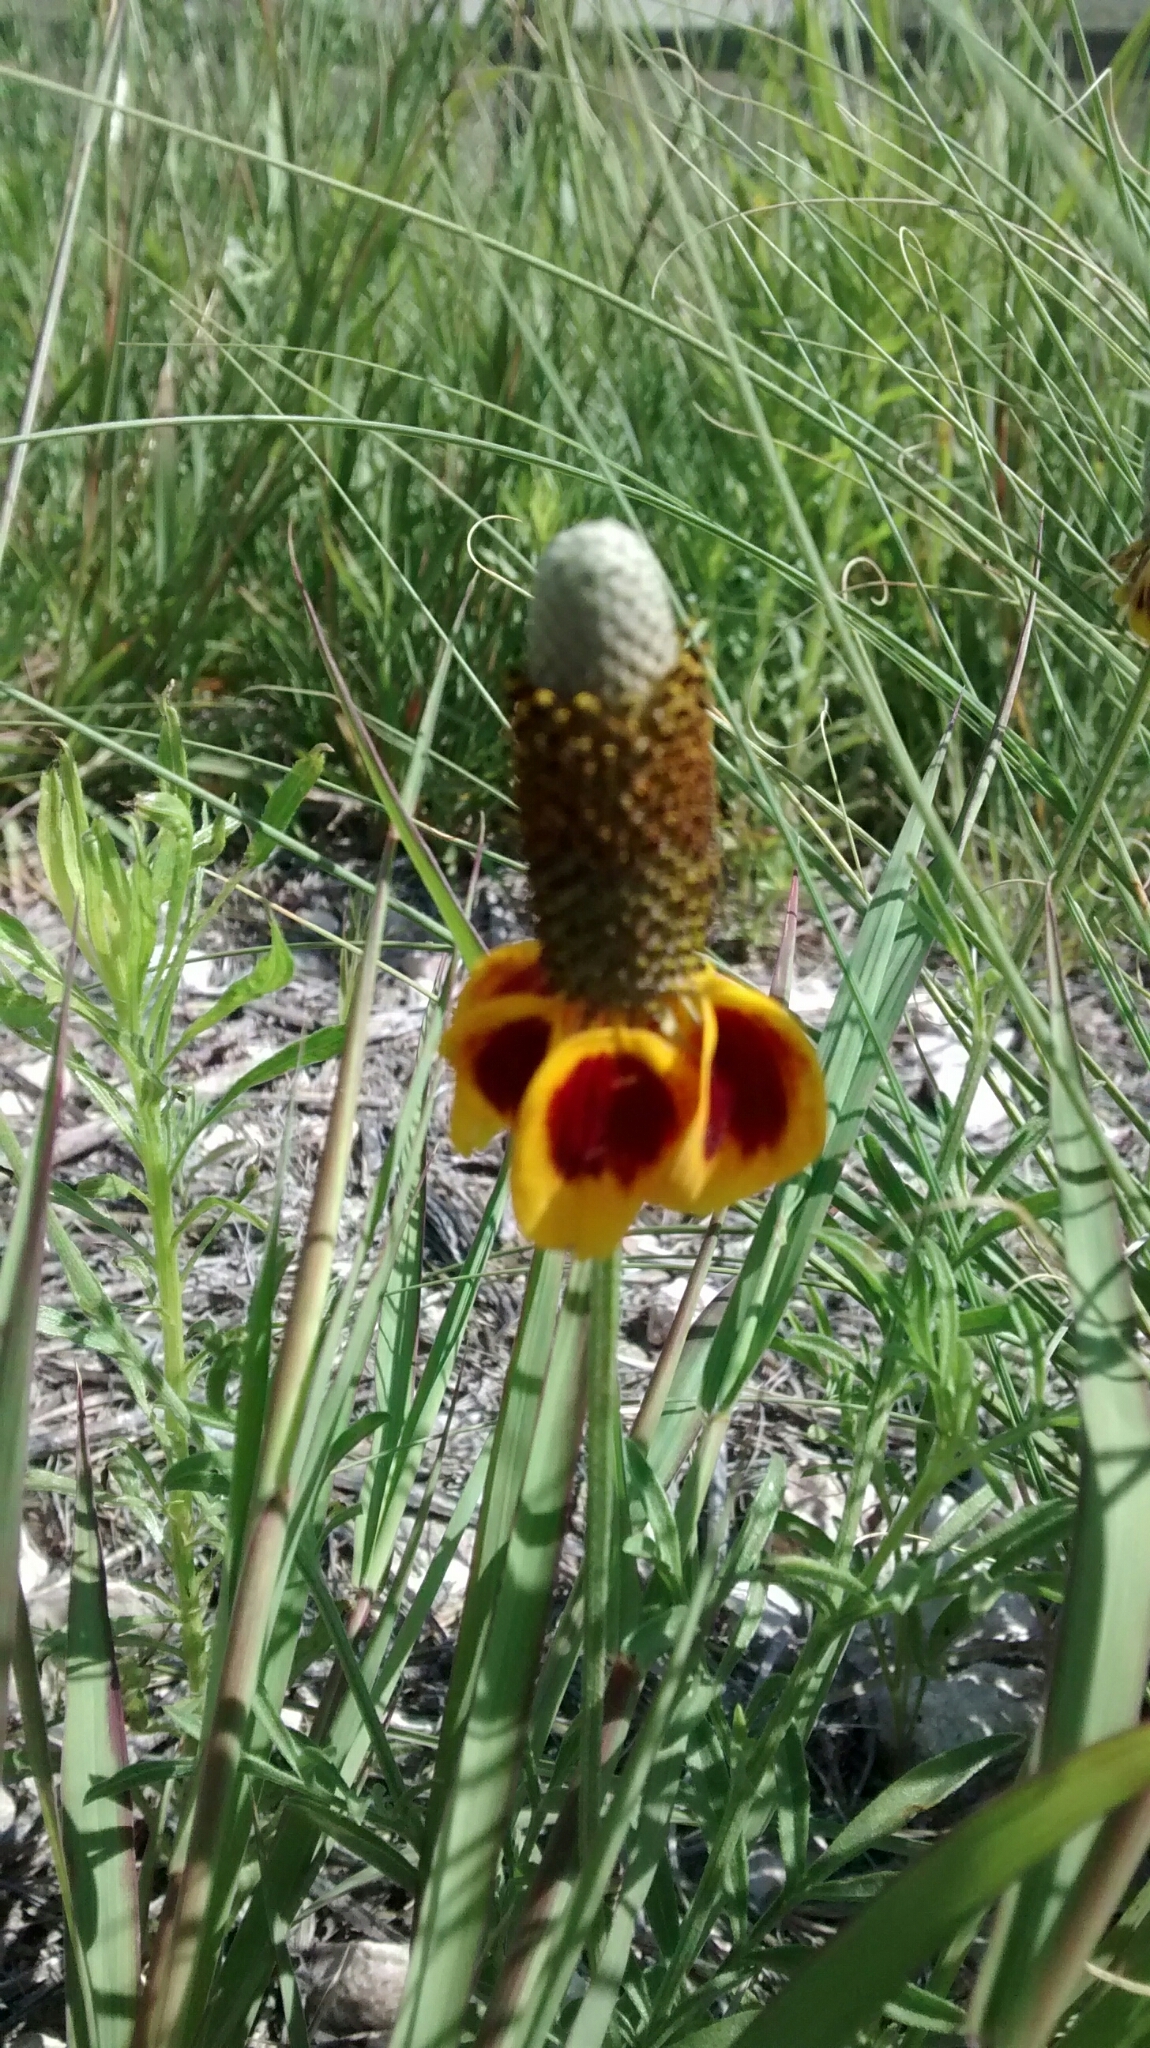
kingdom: Plantae
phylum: Tracheophyta
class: Magnoliopsida
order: Asterales
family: Asteraceae
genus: Ratibida
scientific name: Ratibida columnifera
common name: Prairie coneflower
